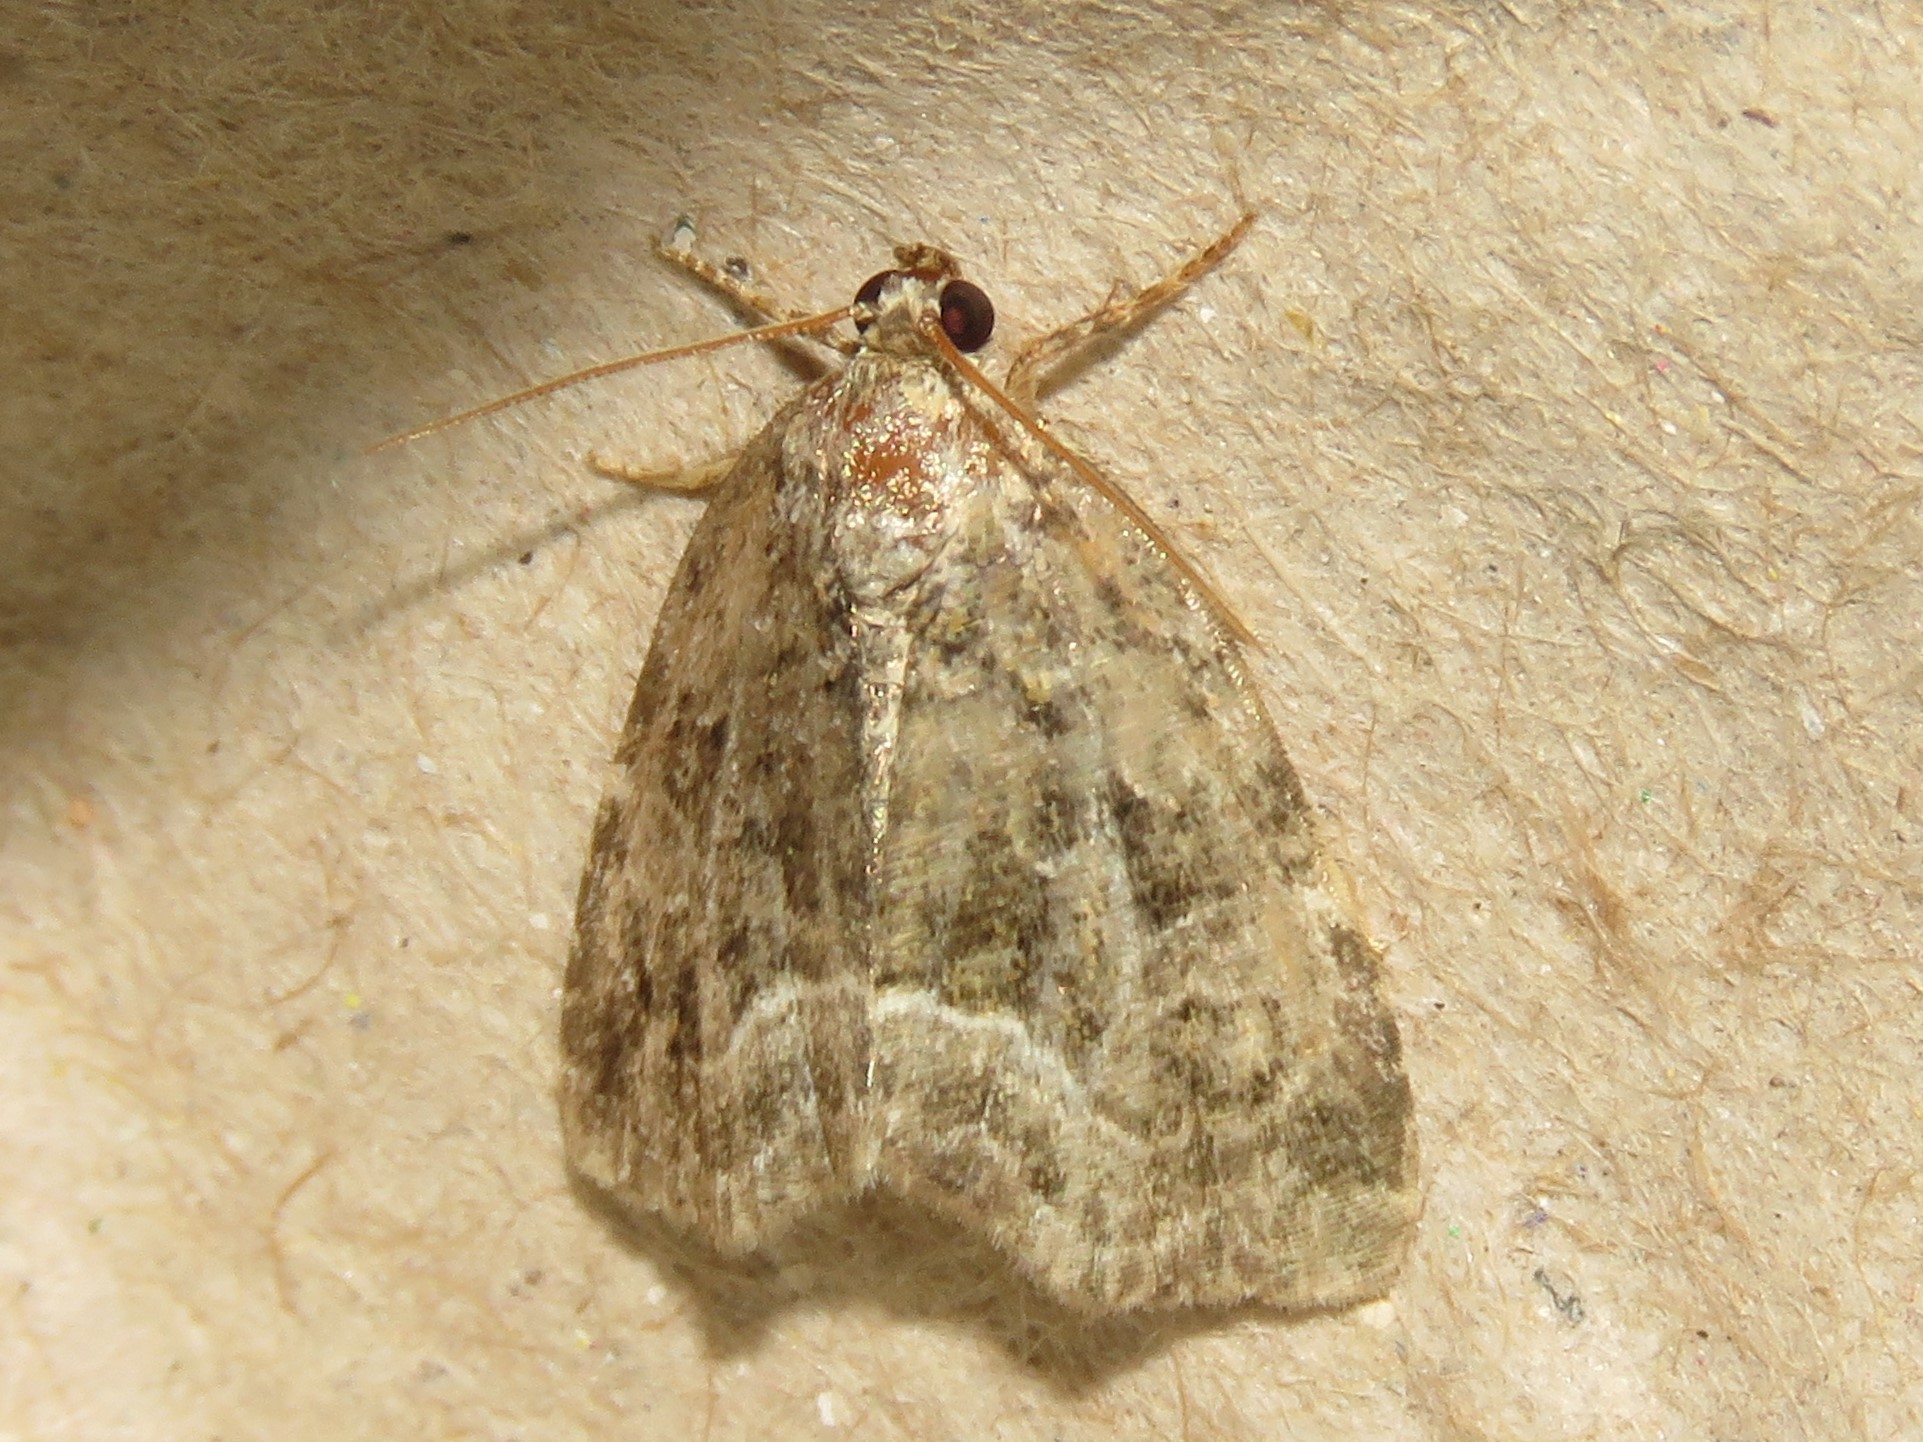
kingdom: Animalia
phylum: Arthropoda
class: Insecta
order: Lepidoptera
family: Noctuidae
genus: Protodeltote
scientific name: Protodeltote muscosula
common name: Large mossy glyph
